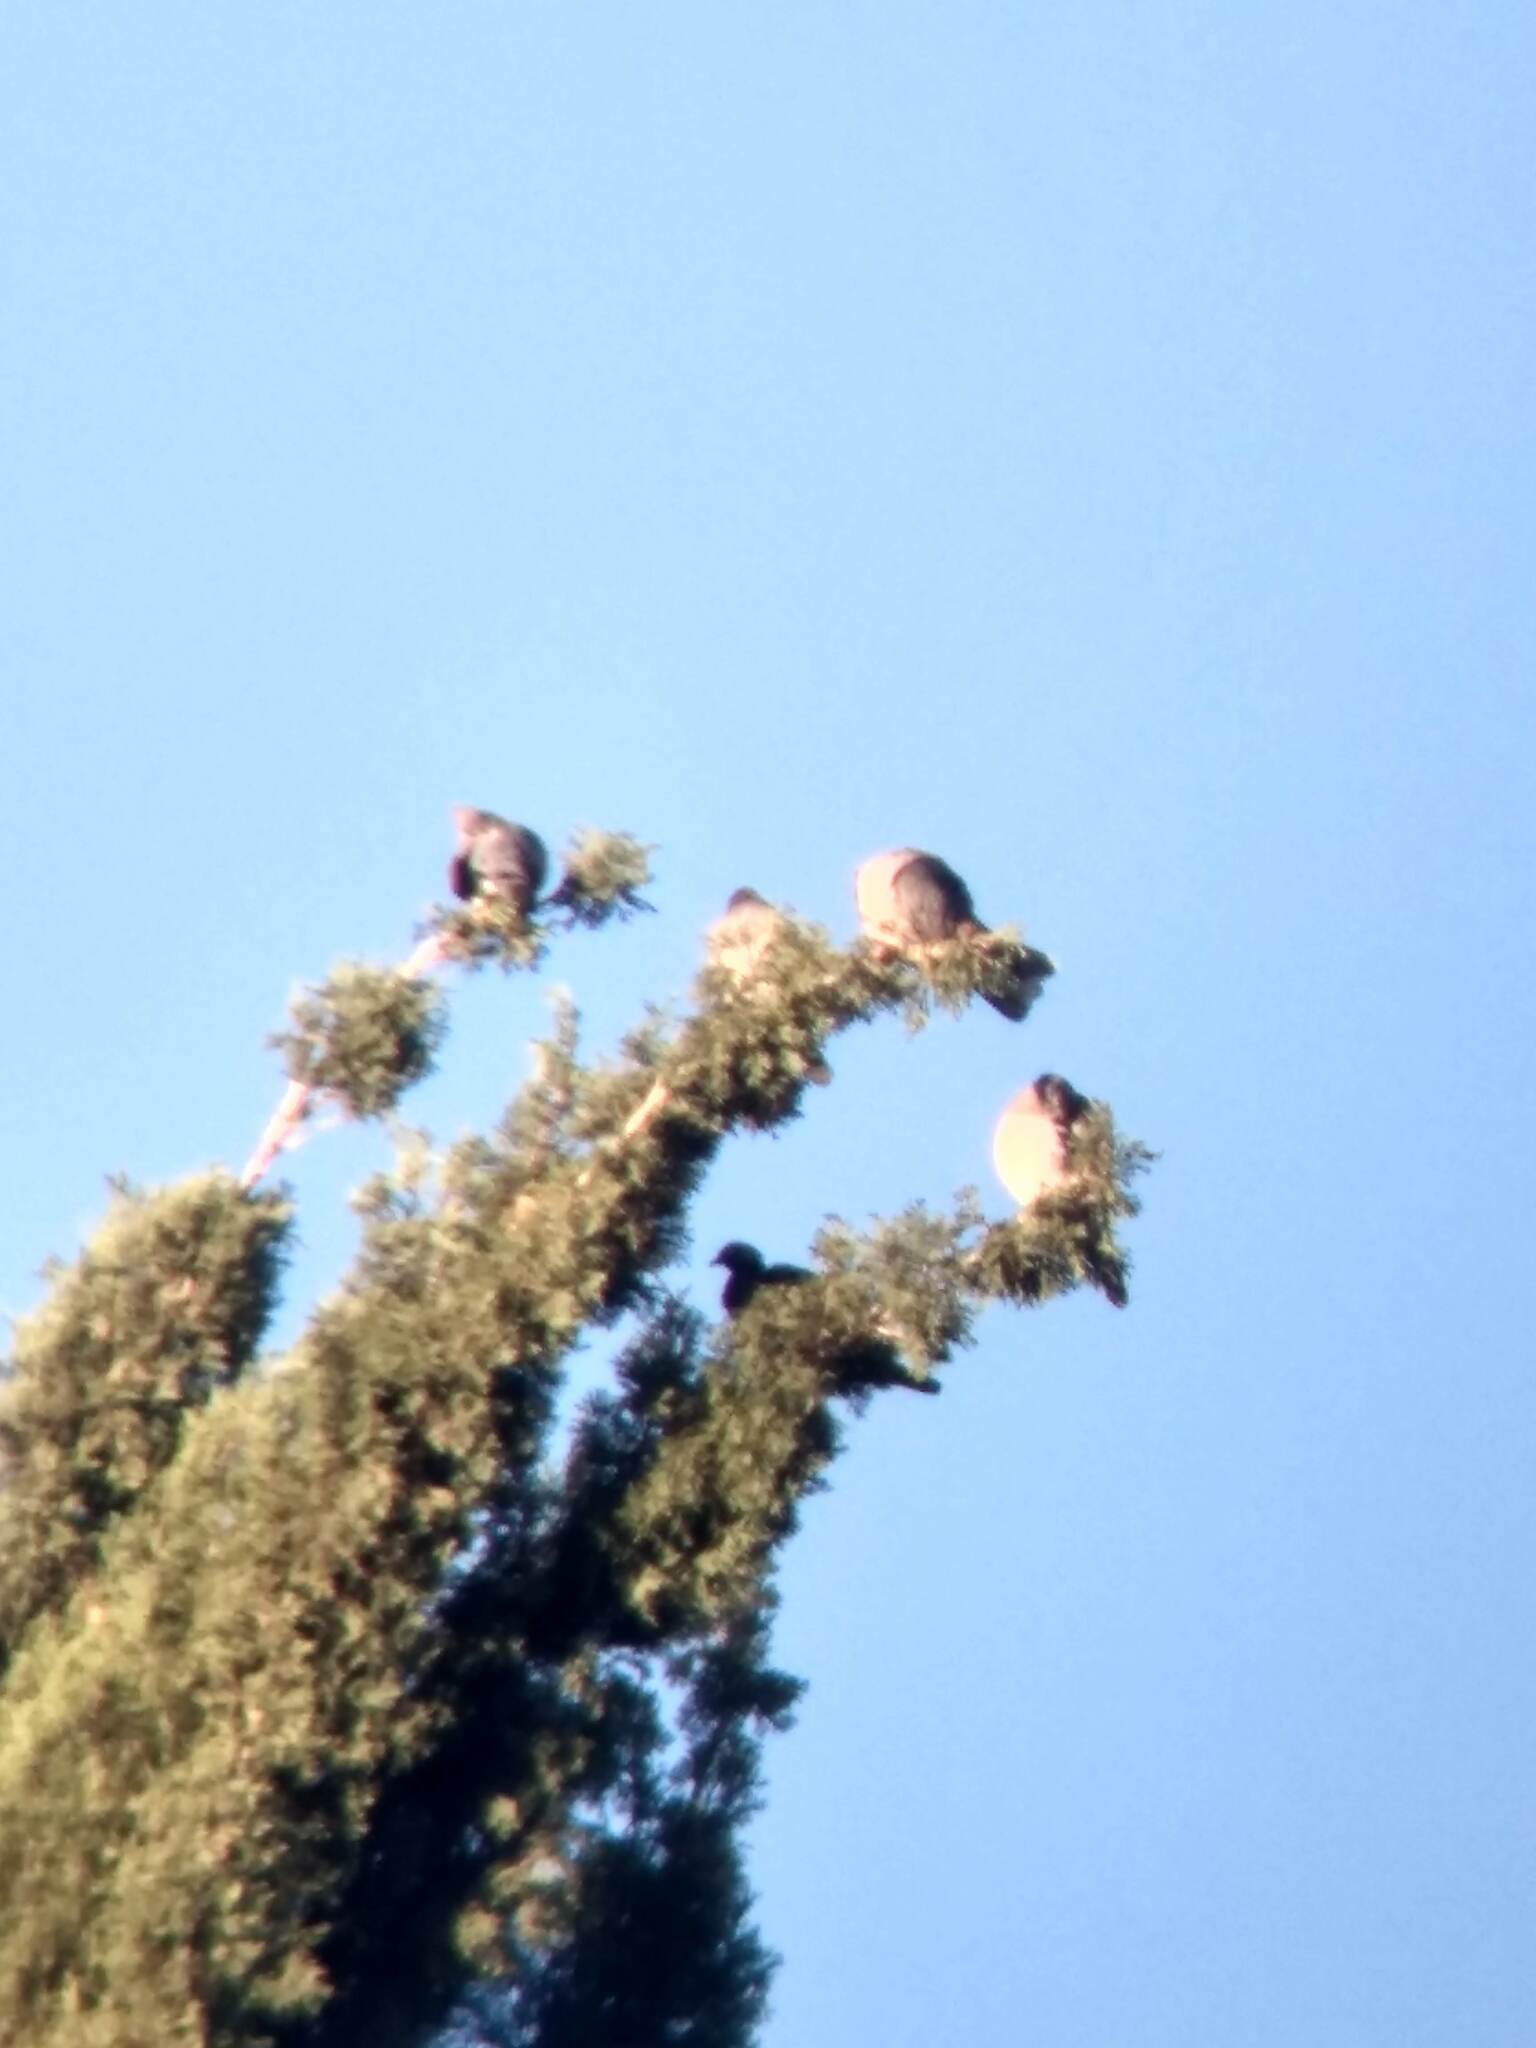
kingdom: Animalia
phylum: Chordata
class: Aves
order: Columbiformes
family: Columbidae
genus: Patagioenas
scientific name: Patagioenas fasciata
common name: Band-tailed pigeon
